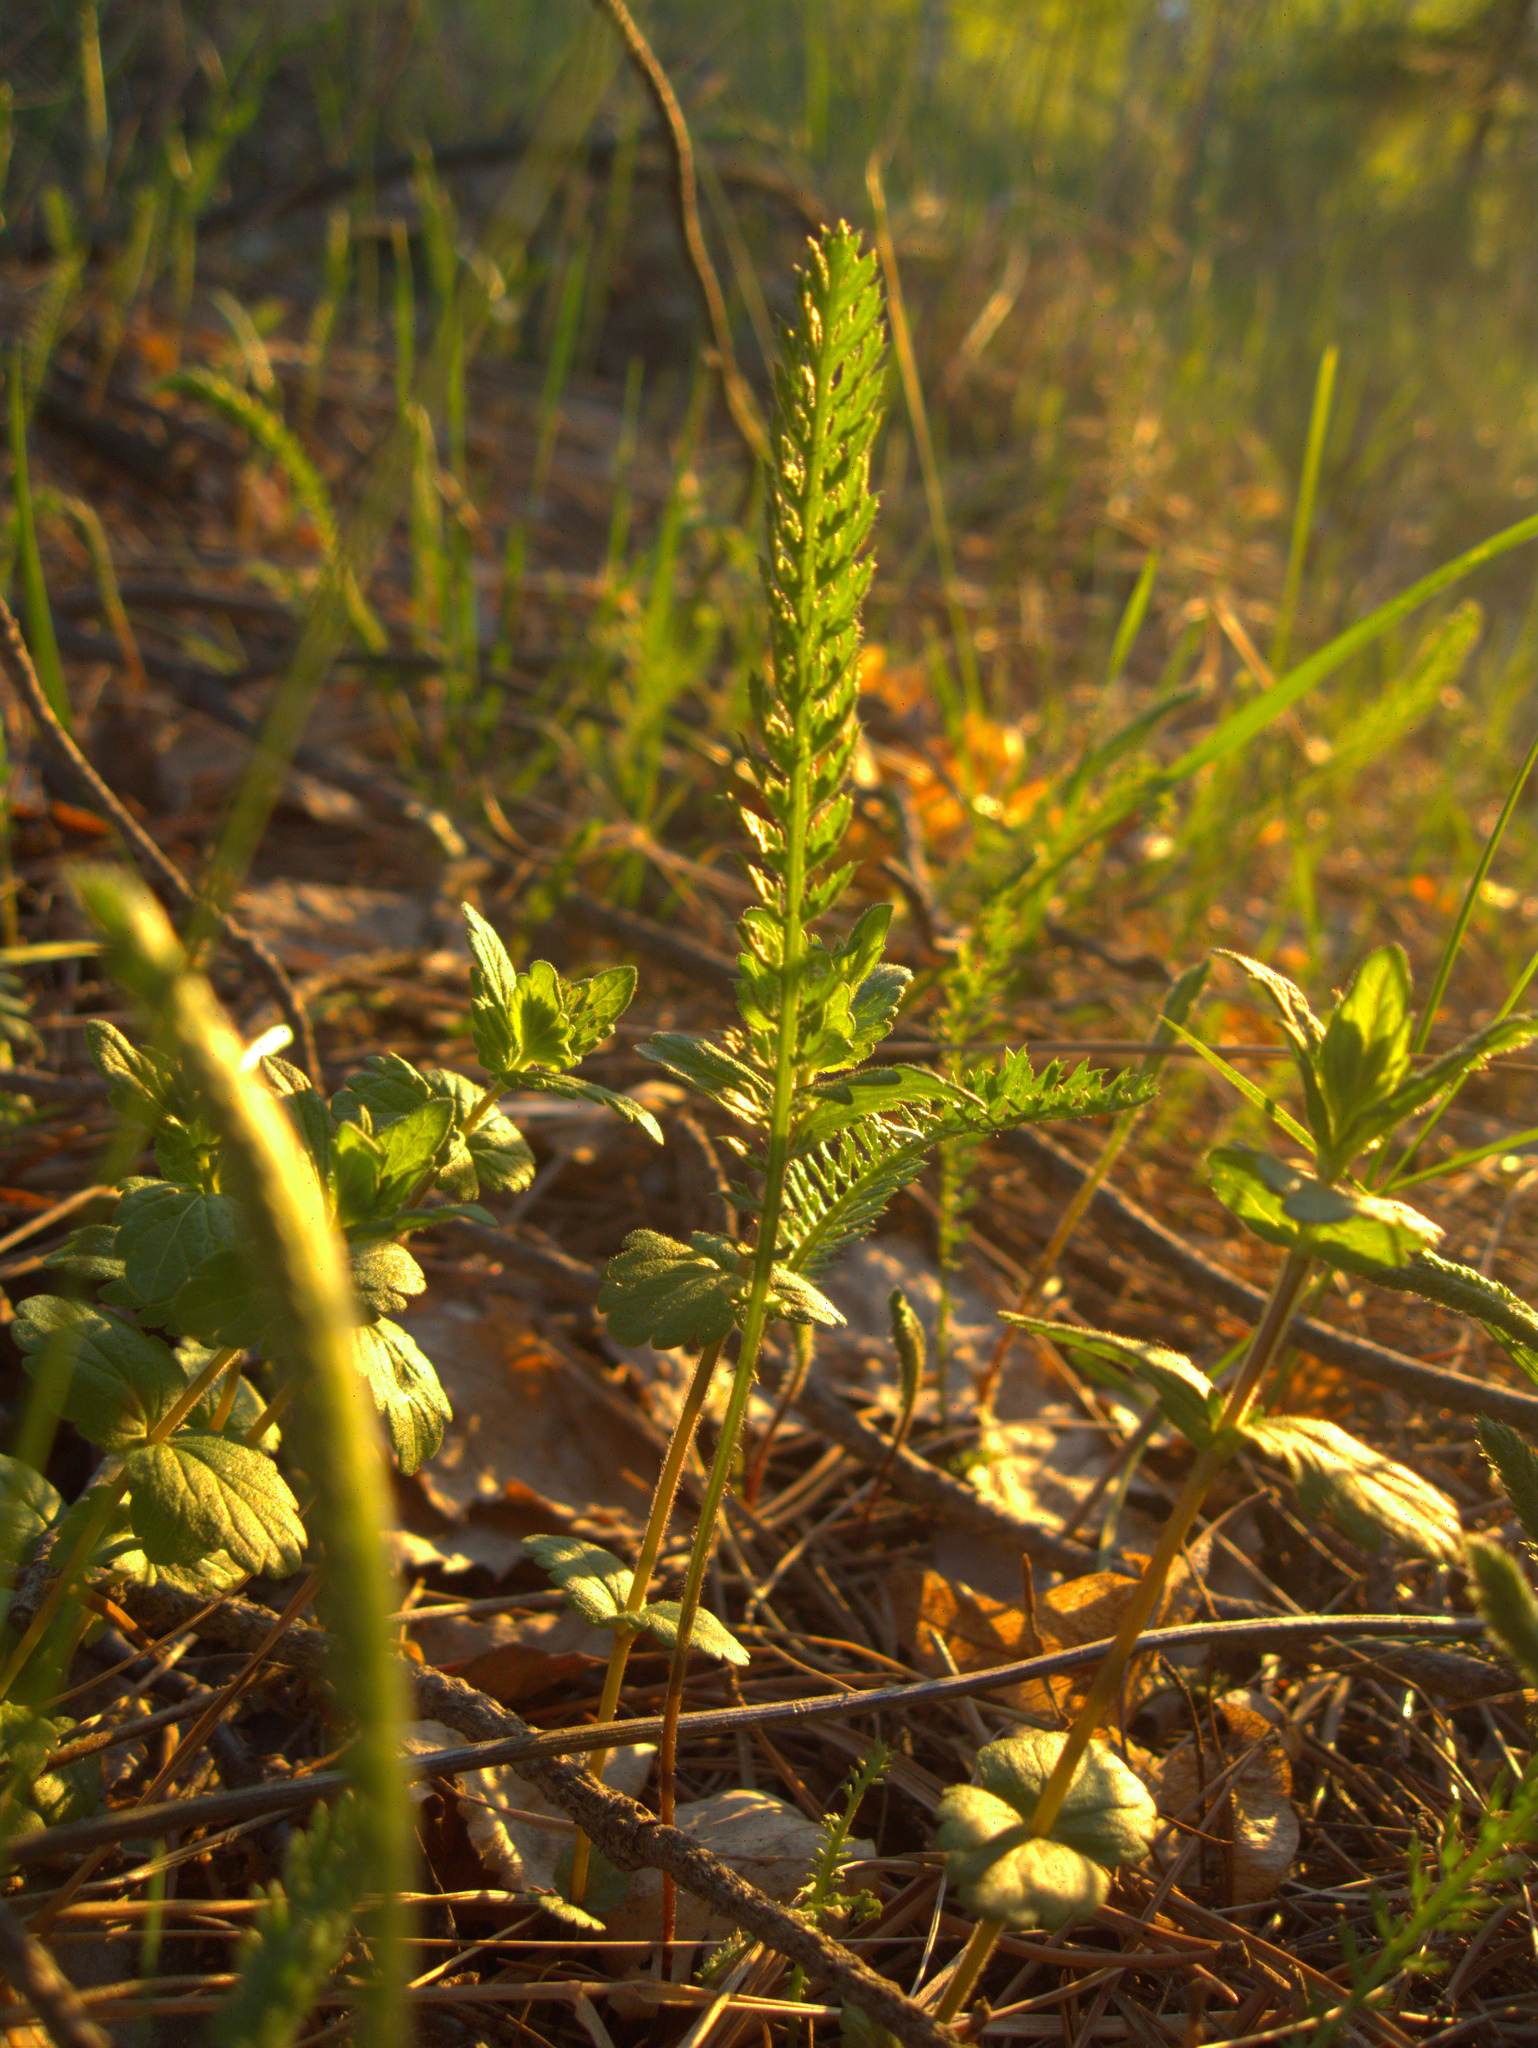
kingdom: Plantae
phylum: Tracheophyta
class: Magnoliopsida
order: Lamiales
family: Plantaginaceae
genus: Veronica
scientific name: Veronica chamaedrys
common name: Germander speedwell
